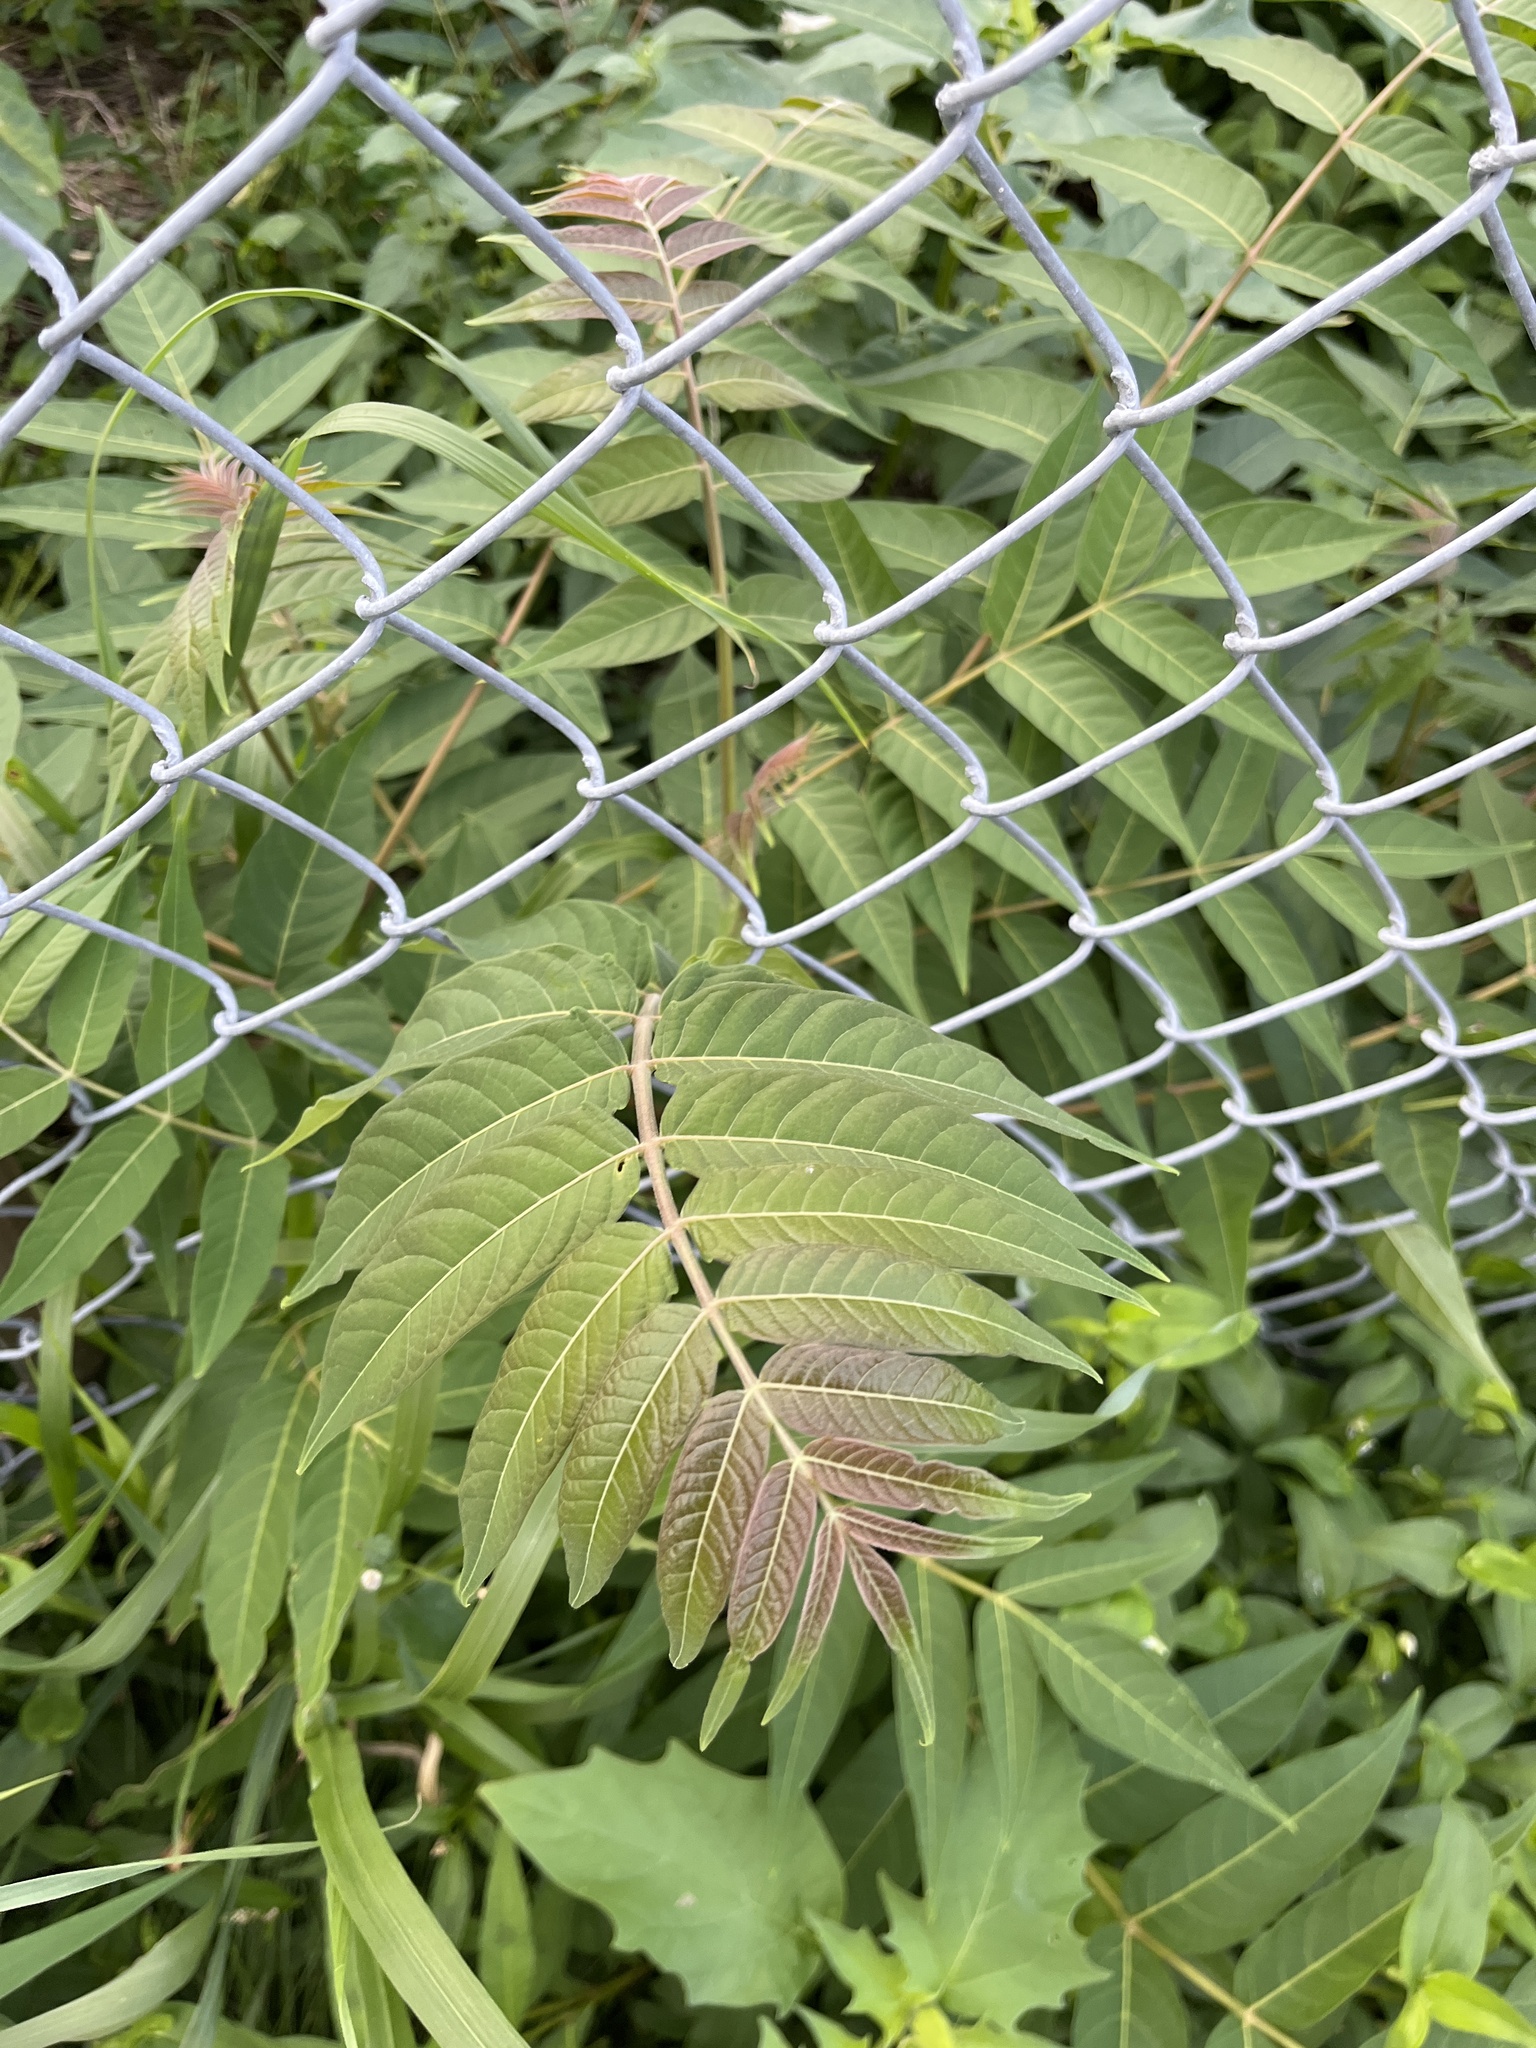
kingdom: Plantae
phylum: Tracheophyta
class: Magnoliopsida
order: Sapindales
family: Simaroubaceae
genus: Ailanthus
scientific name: Ailanthus altissima
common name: Tree-of-heaven
